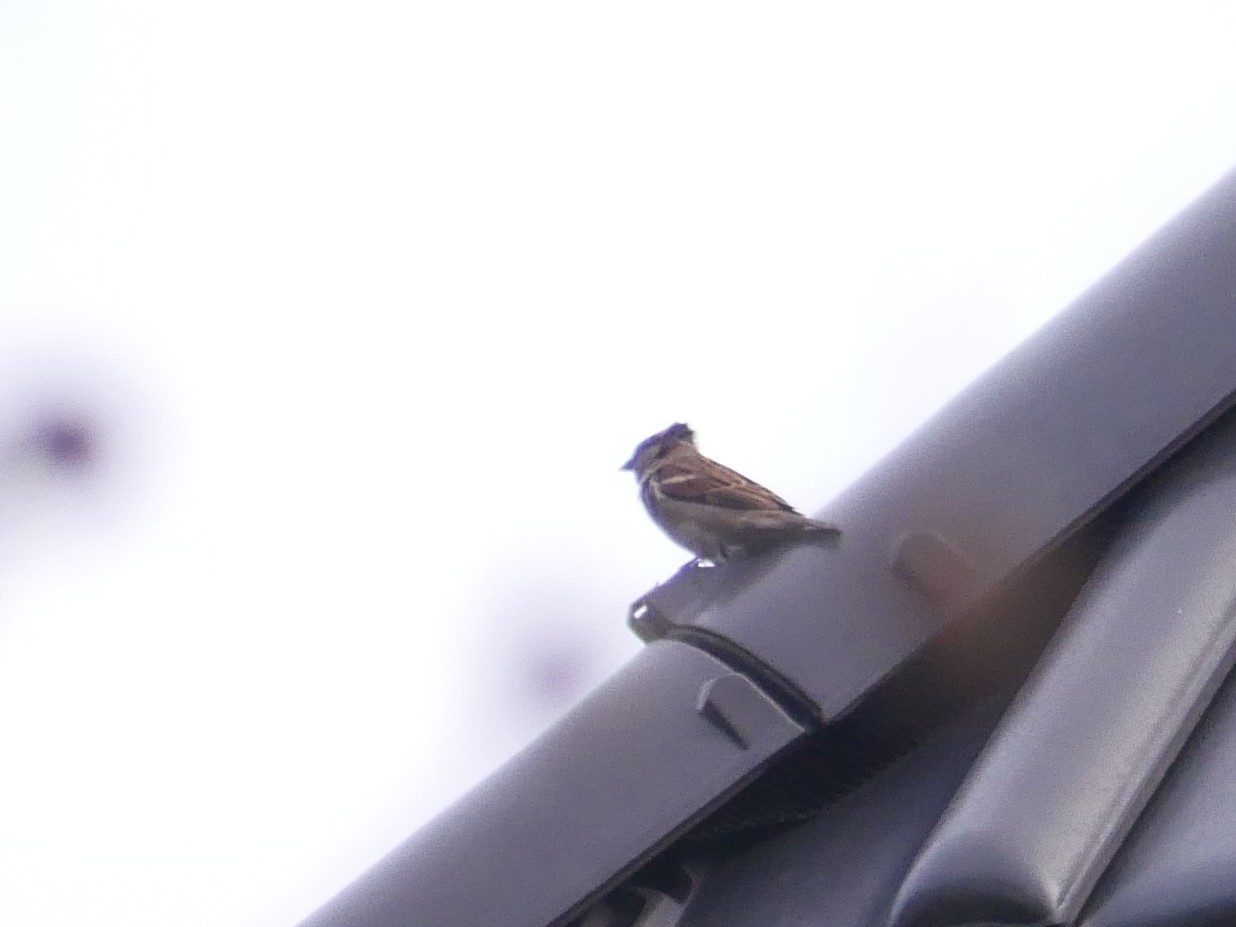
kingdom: Animalia
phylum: Chordata
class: Aves
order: Passeriformes
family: Passeridae
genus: Passer
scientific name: Passer domesticus
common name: House sparrow
